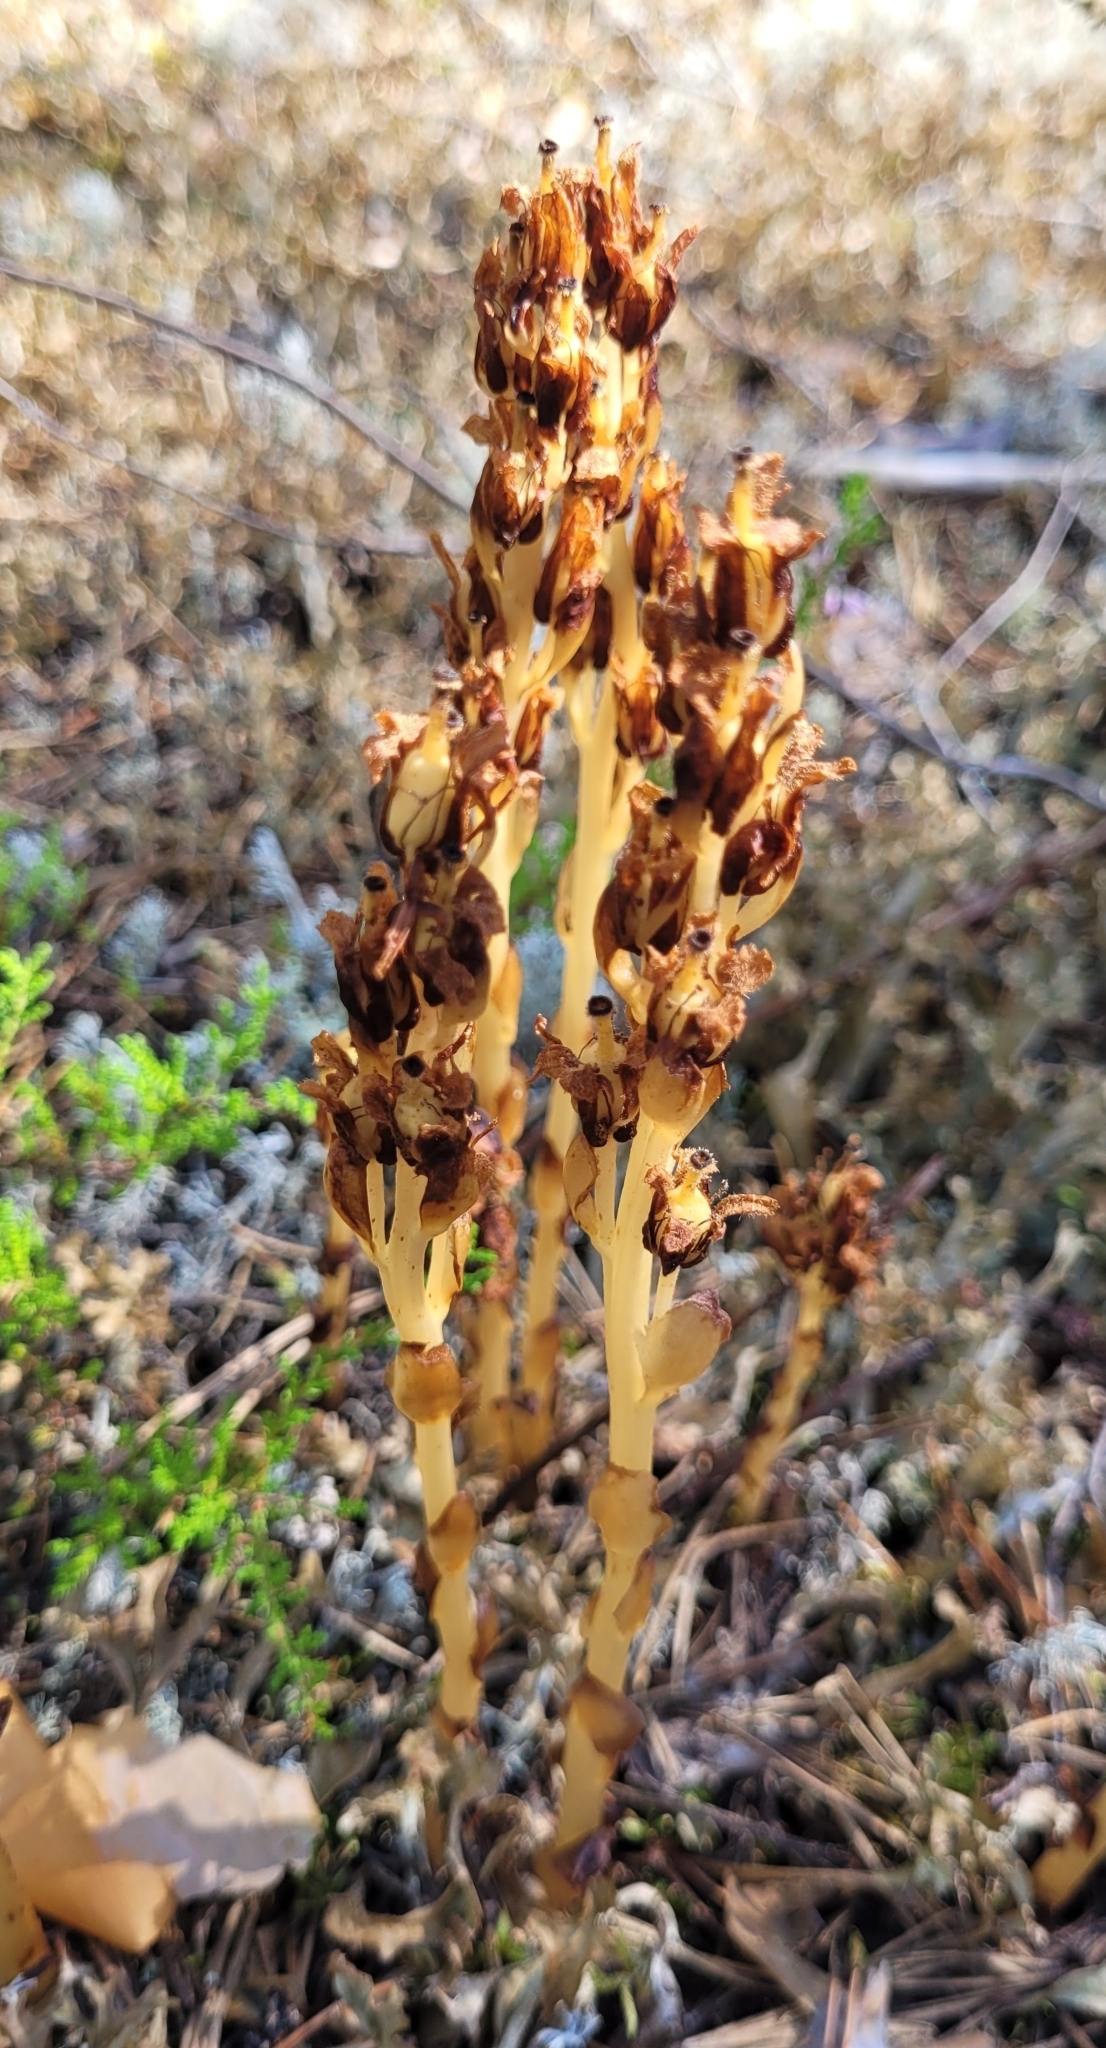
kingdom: Plantae
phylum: Tracheophyta
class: Magnoliopsida
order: Ericales
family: Ericaceae
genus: Hypopitys
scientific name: Hypopitys monotropa
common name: Yellow bird's-nest
